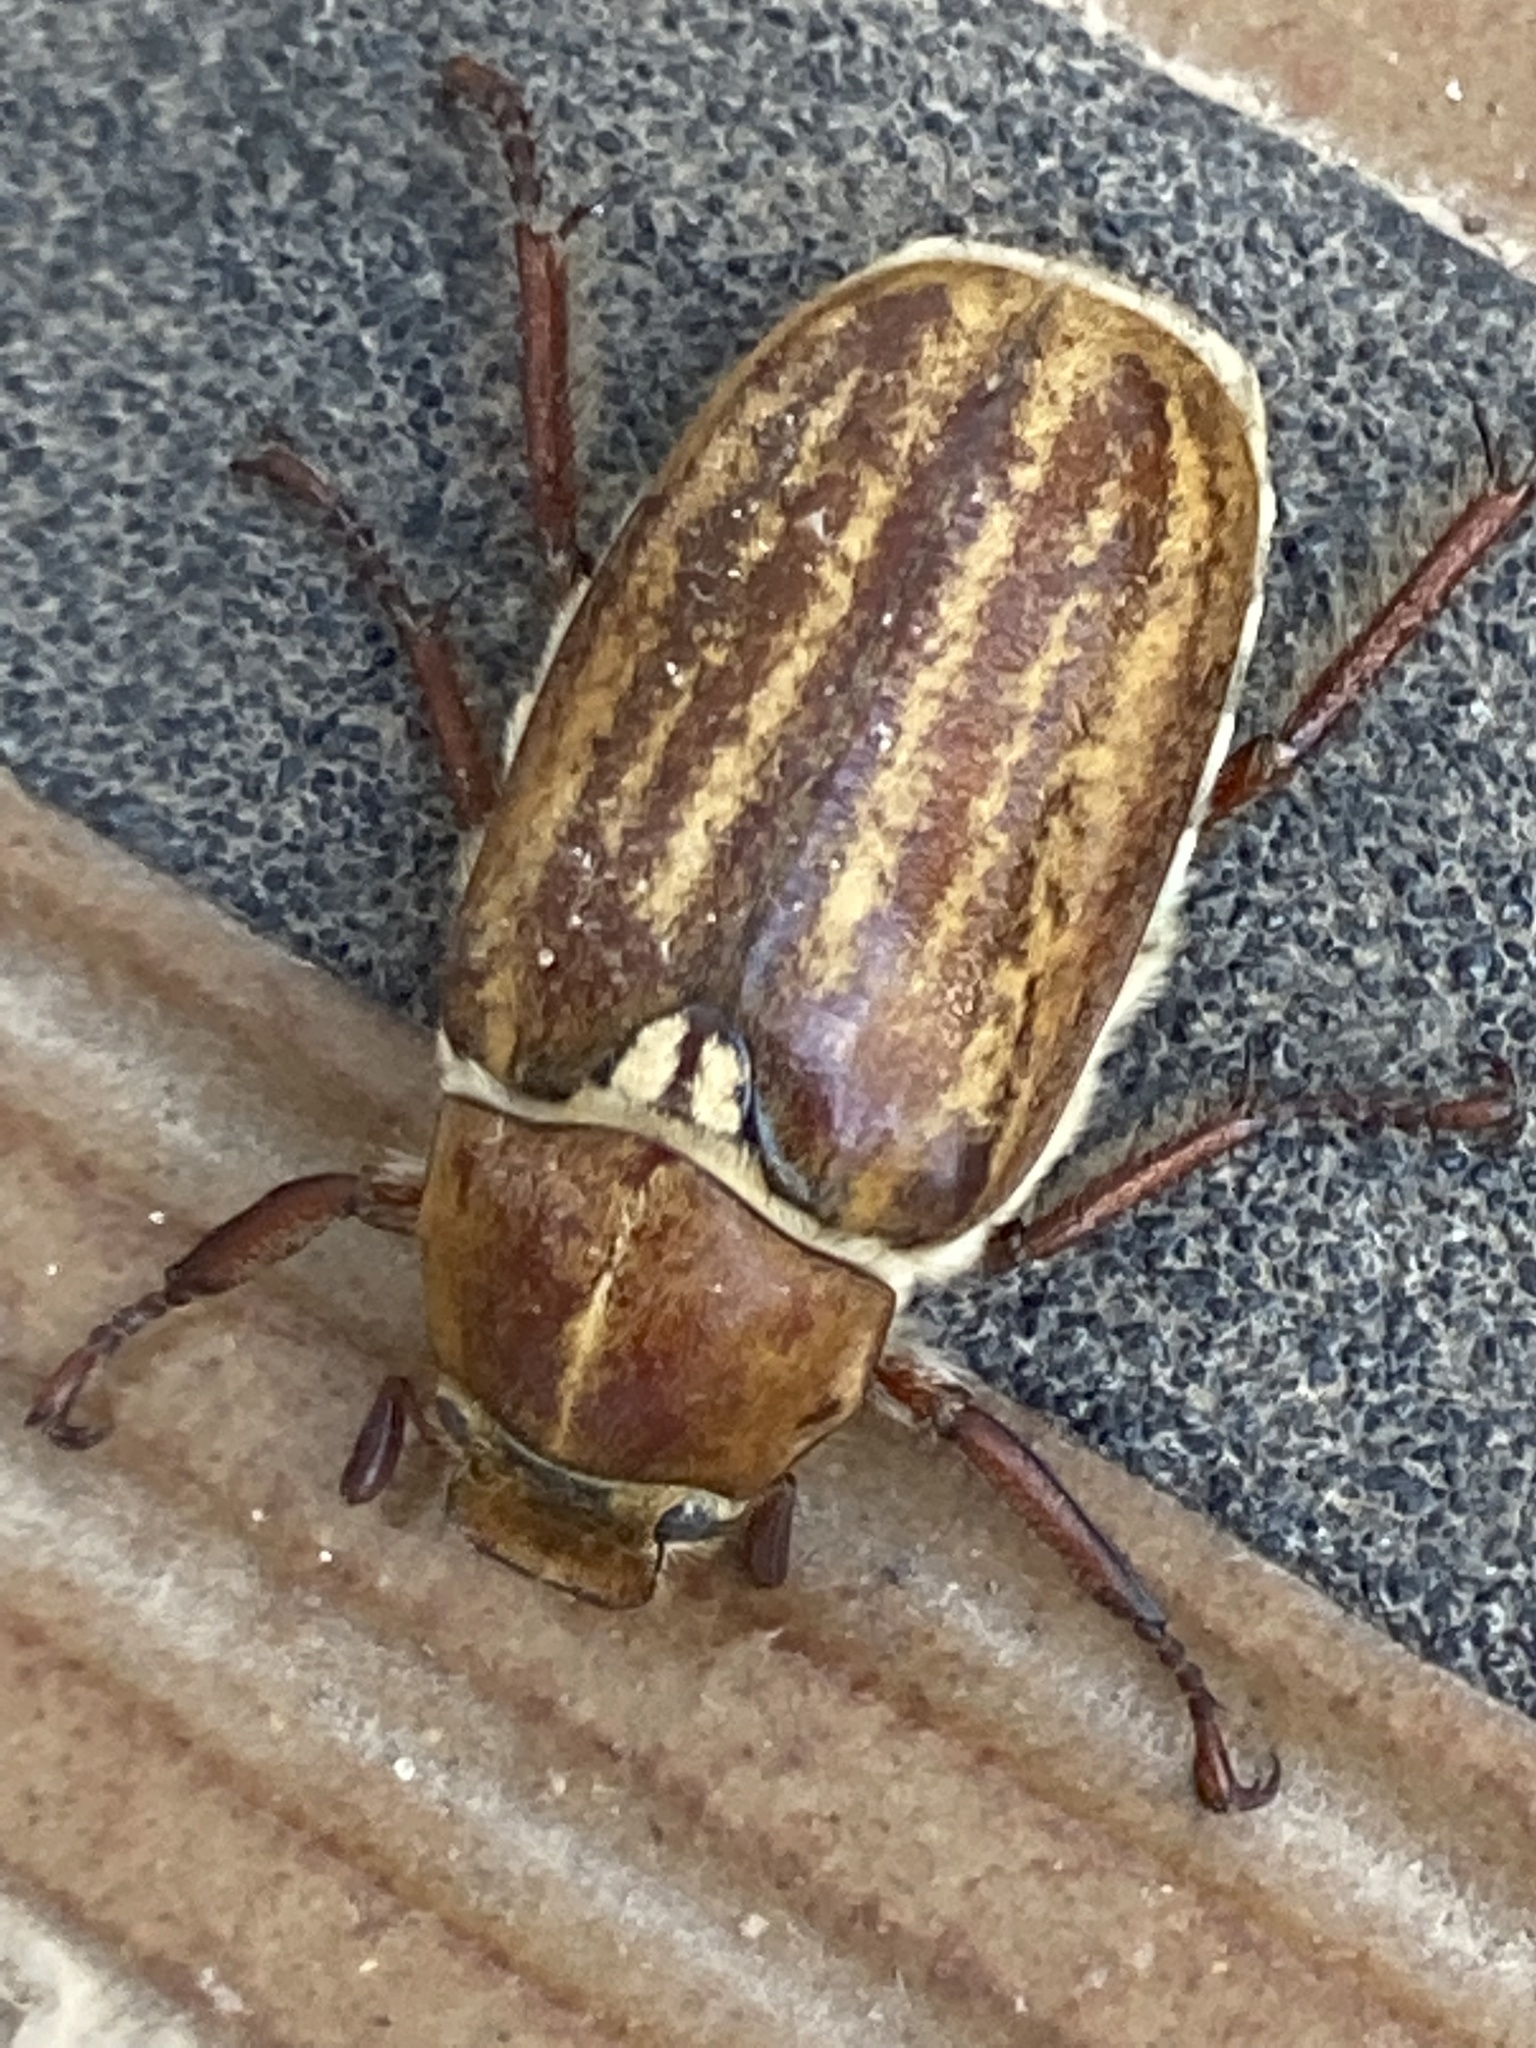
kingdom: Animalia
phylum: Arthropoda
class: Insecta
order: Coleoptera
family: Scarabaeidae
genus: Anoxia
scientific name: Anoxia australis
